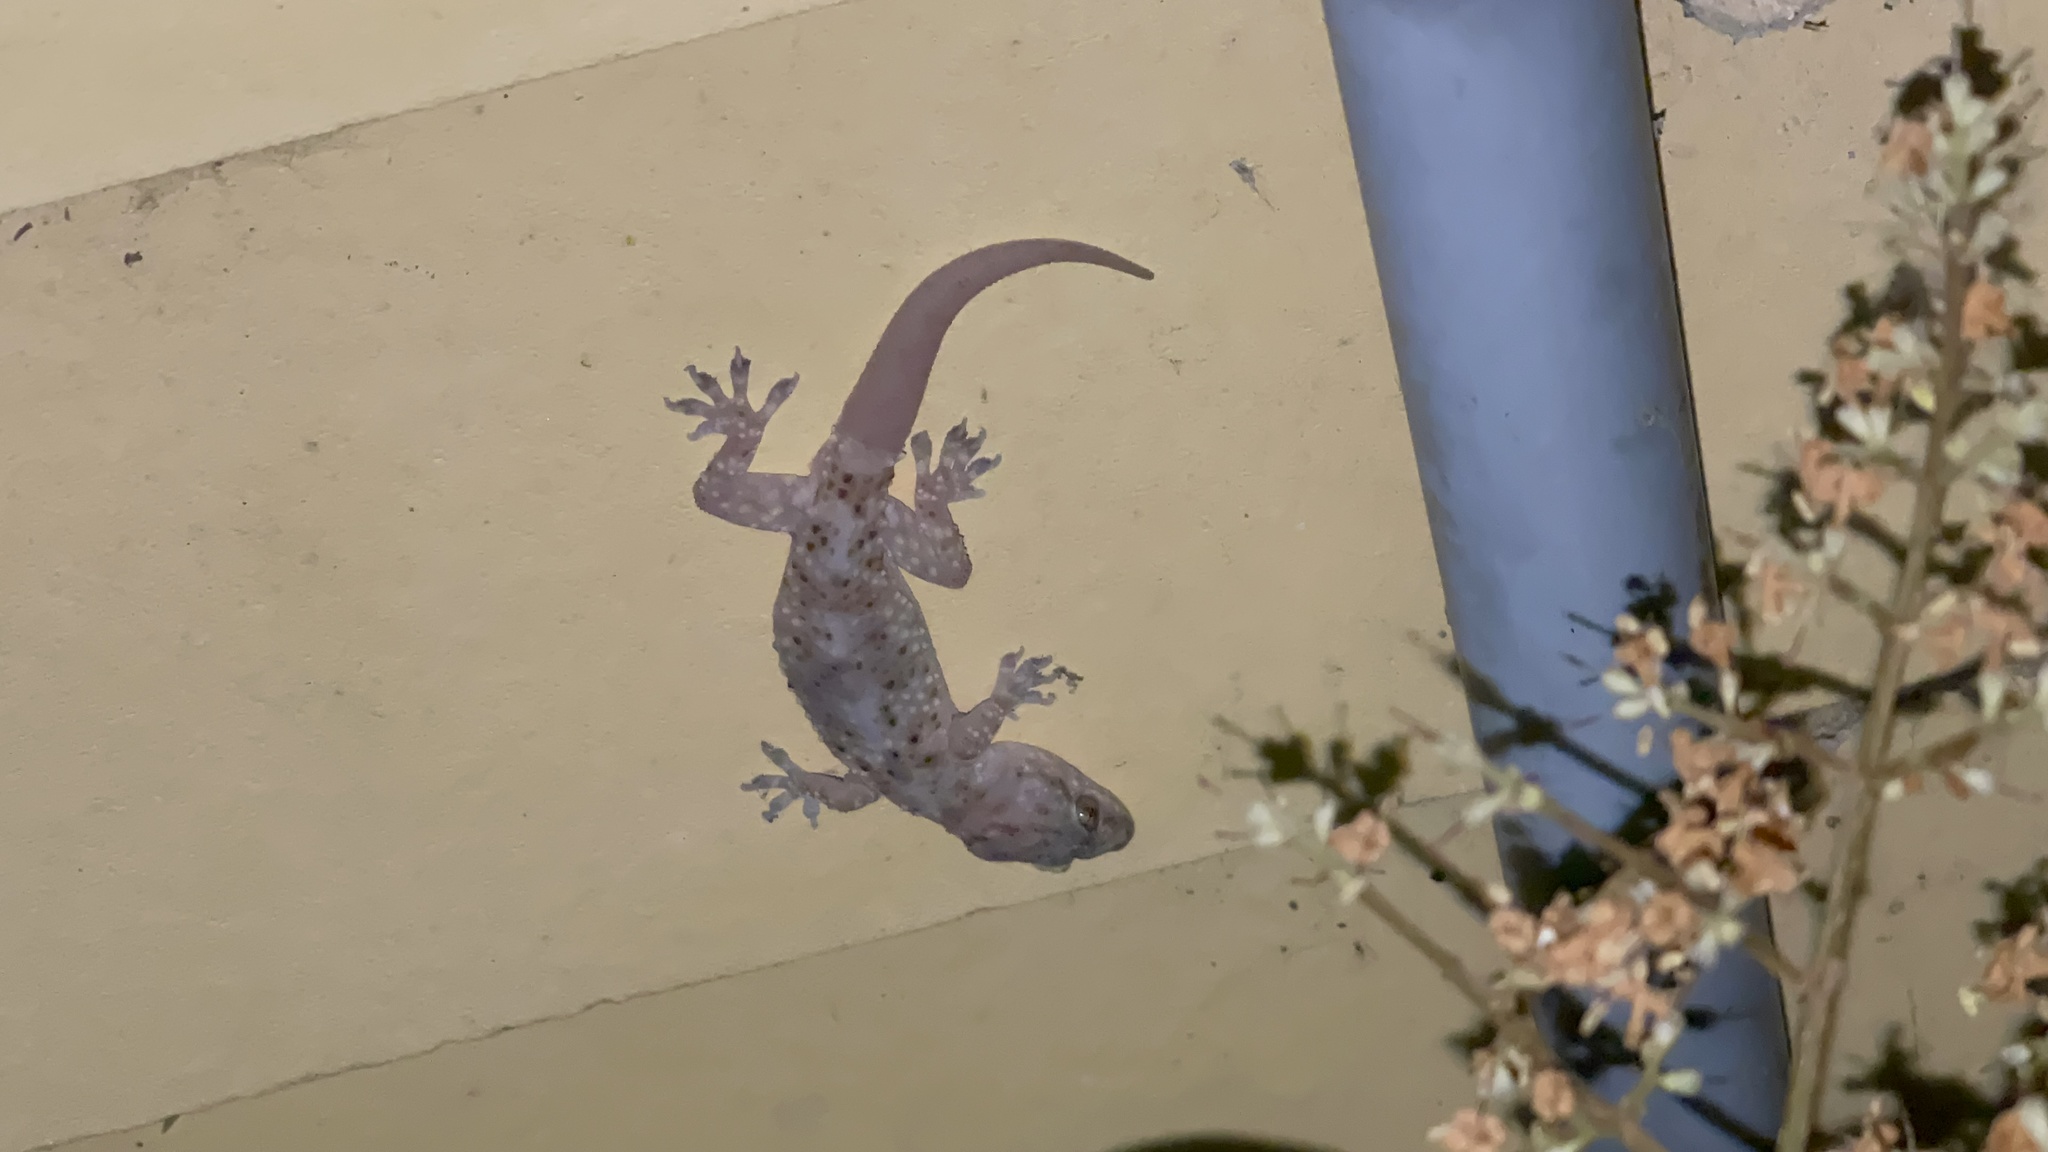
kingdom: Animalia
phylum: Chordata
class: Squamata
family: Gekkonidae
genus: Hemidactylus
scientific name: Hemidactylus turcicus
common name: Turkish gecko
